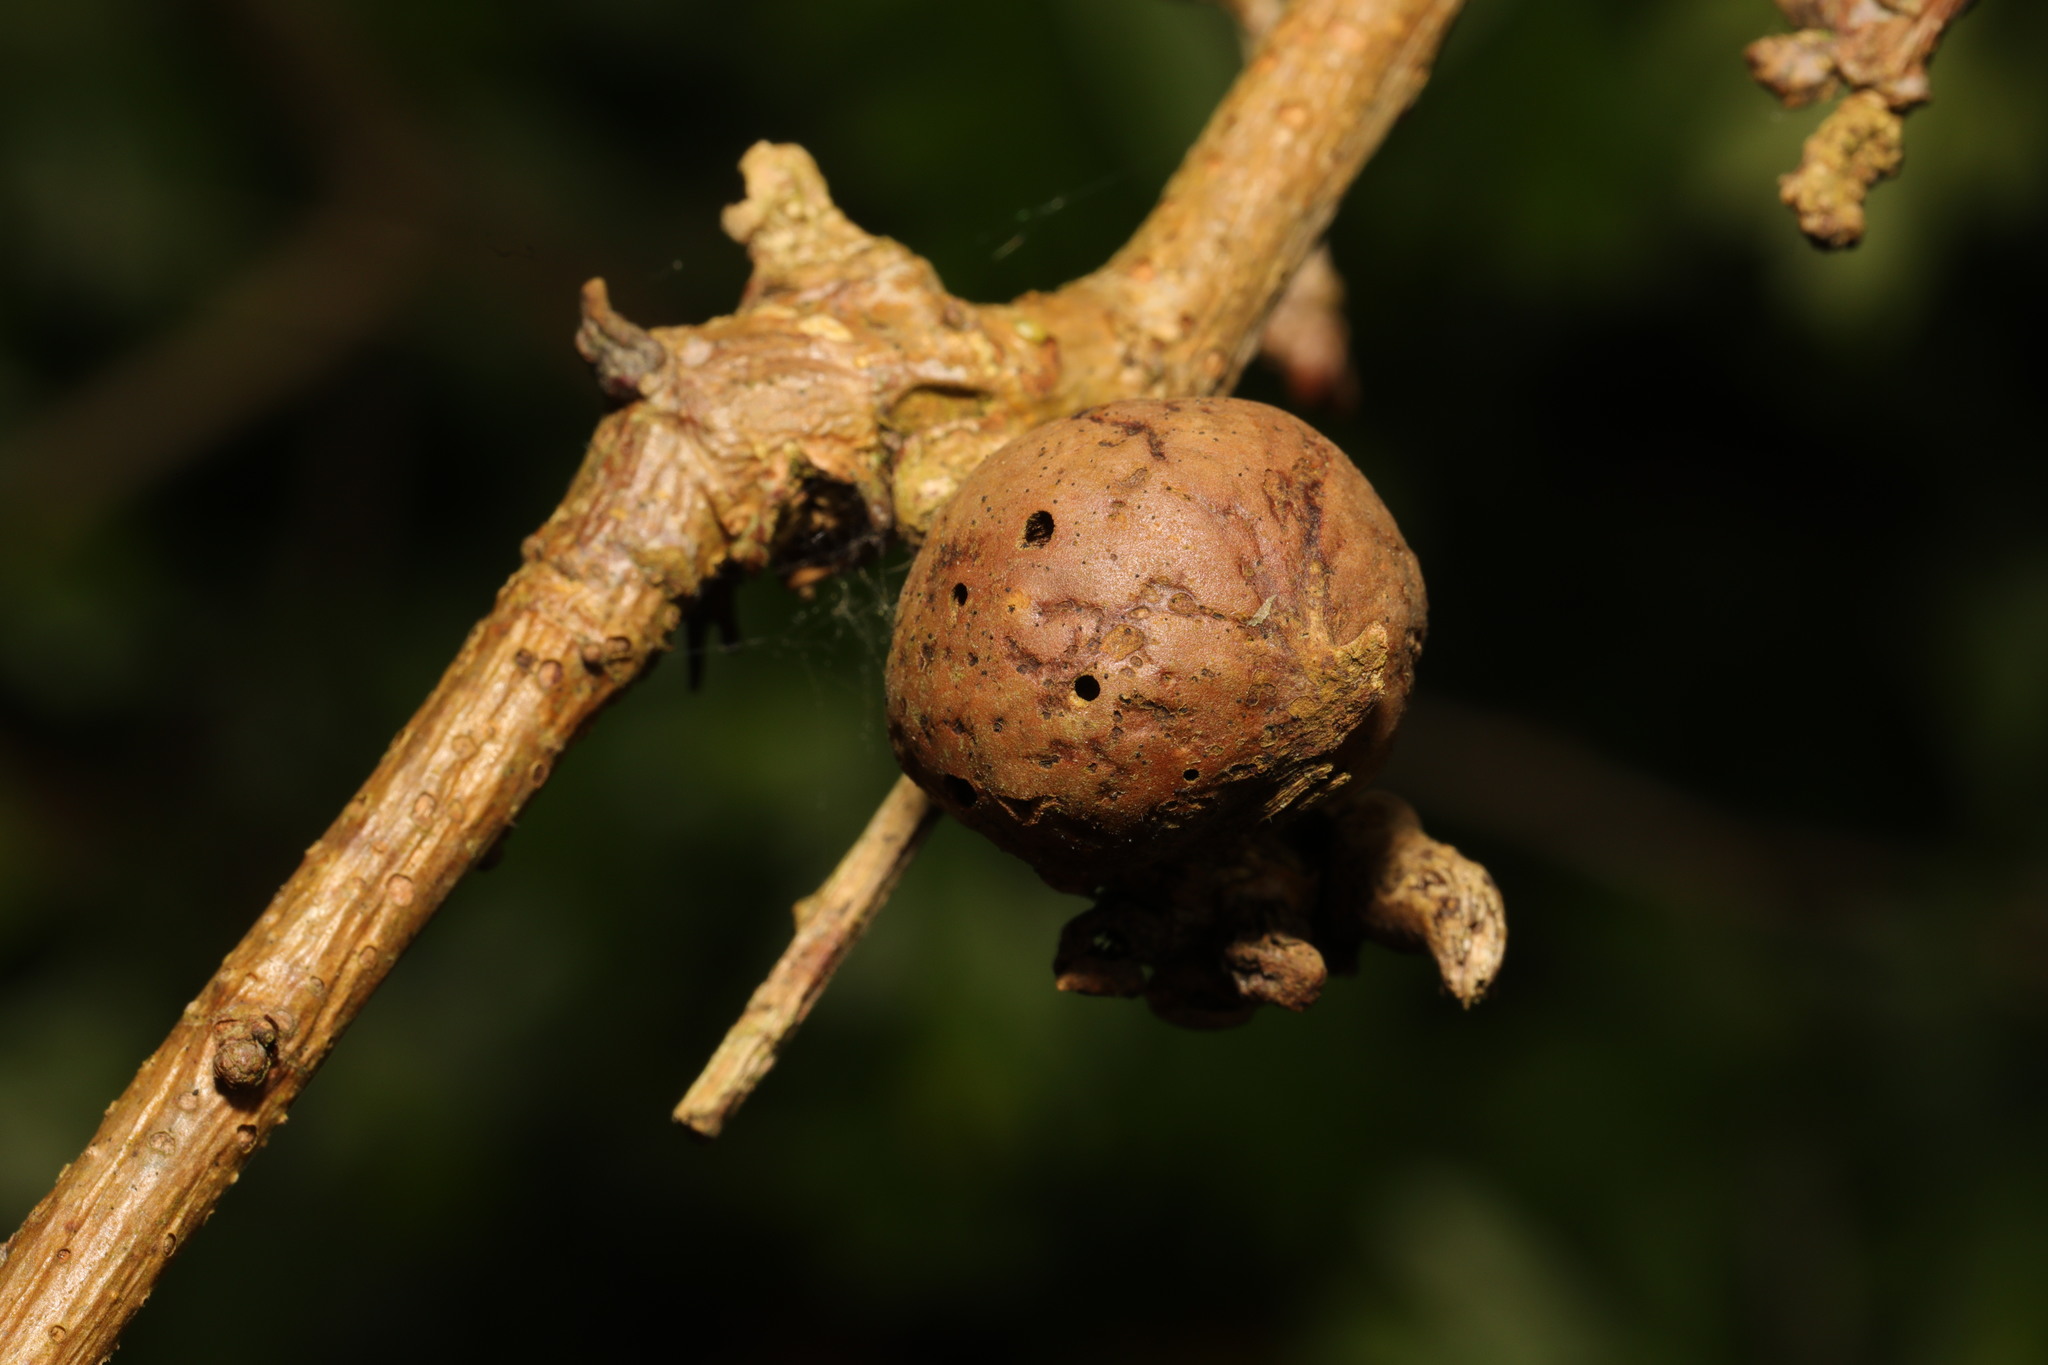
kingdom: Animalia
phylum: Arthropoda
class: Insecta
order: Hymenoptera
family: Cynipidae
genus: Andricus
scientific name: Andricus kollari
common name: Marble gall
